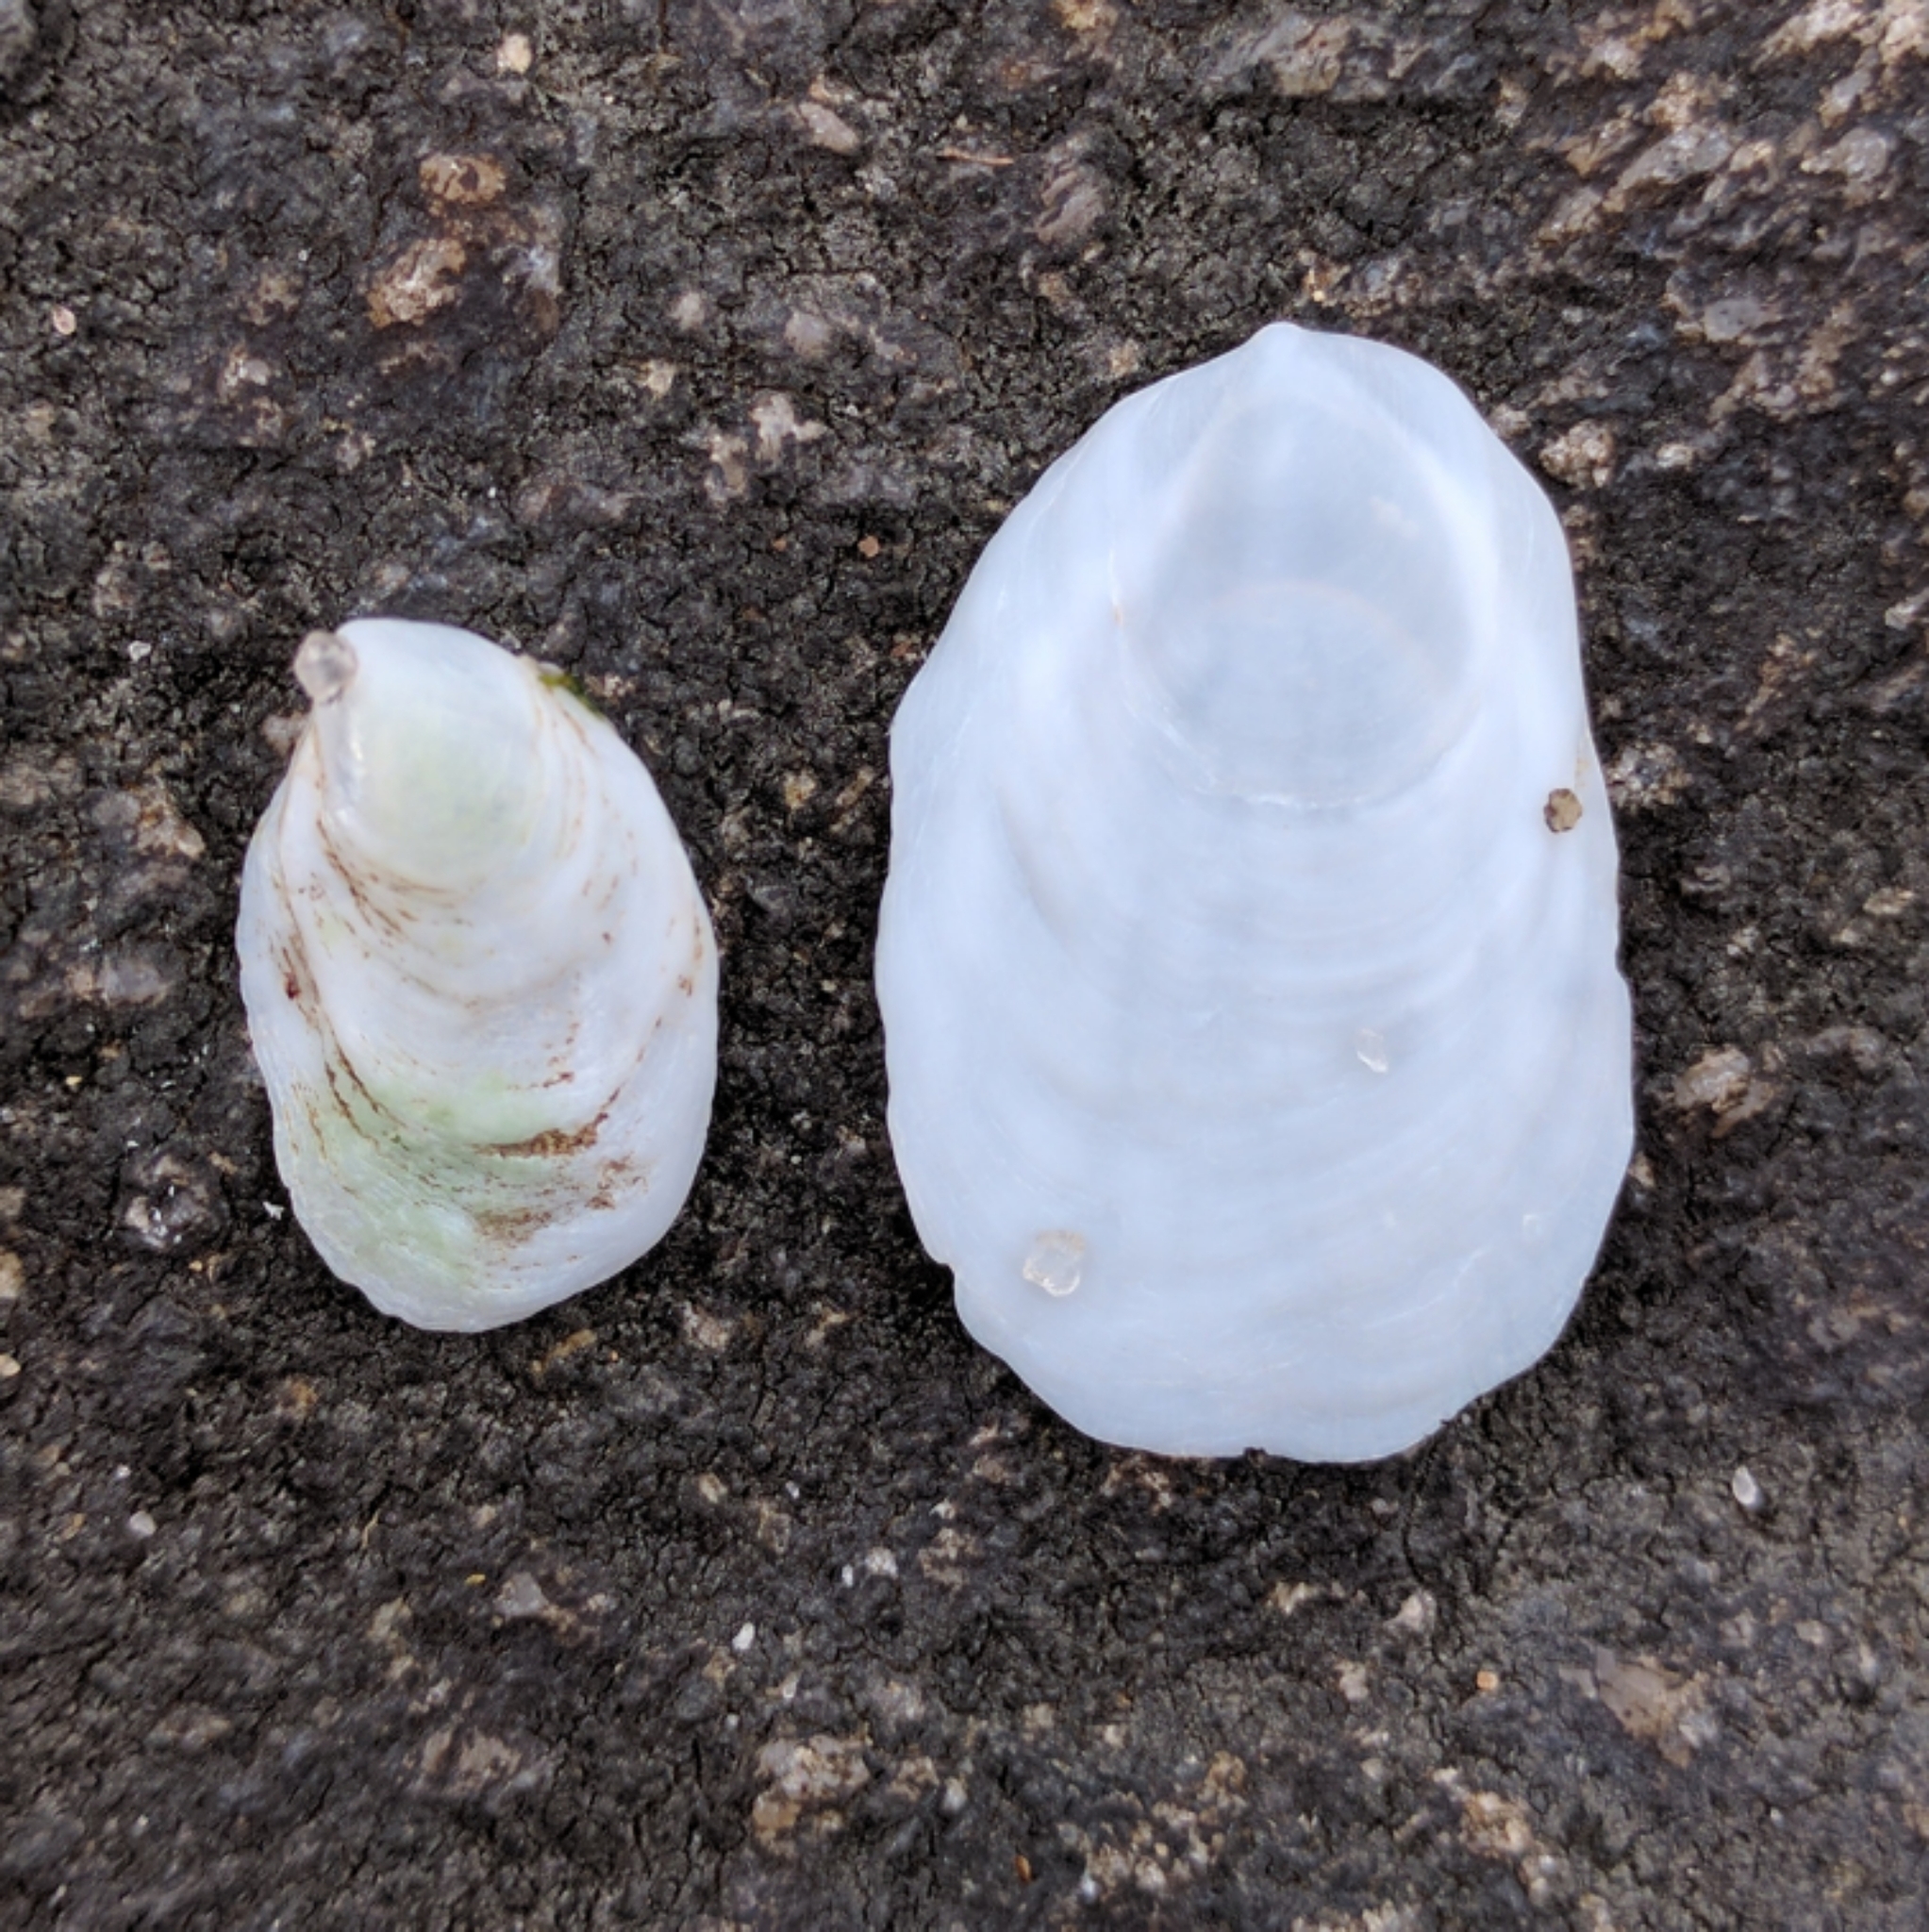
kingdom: Animalia
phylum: Mollusca
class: Gastropoda
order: Littorinimorpha
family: Calyptraeidae
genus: Crepidula
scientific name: Crepidula plana
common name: Eastern white slippersnail
